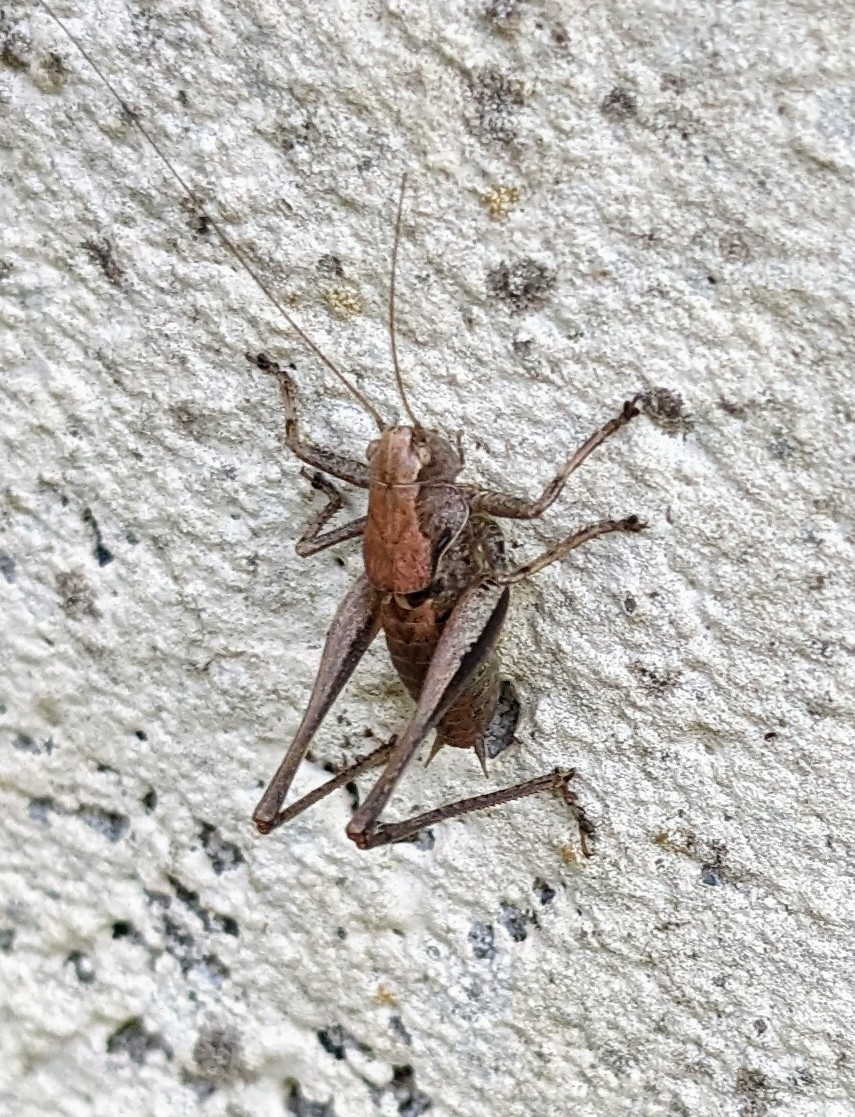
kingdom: Animalia
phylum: Arthropoda
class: Insecta
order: Orthoptera
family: Tettigoniidae
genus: Pholidoptera
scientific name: Pholidoptera griseoaptera
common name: Dark bush-cricket
